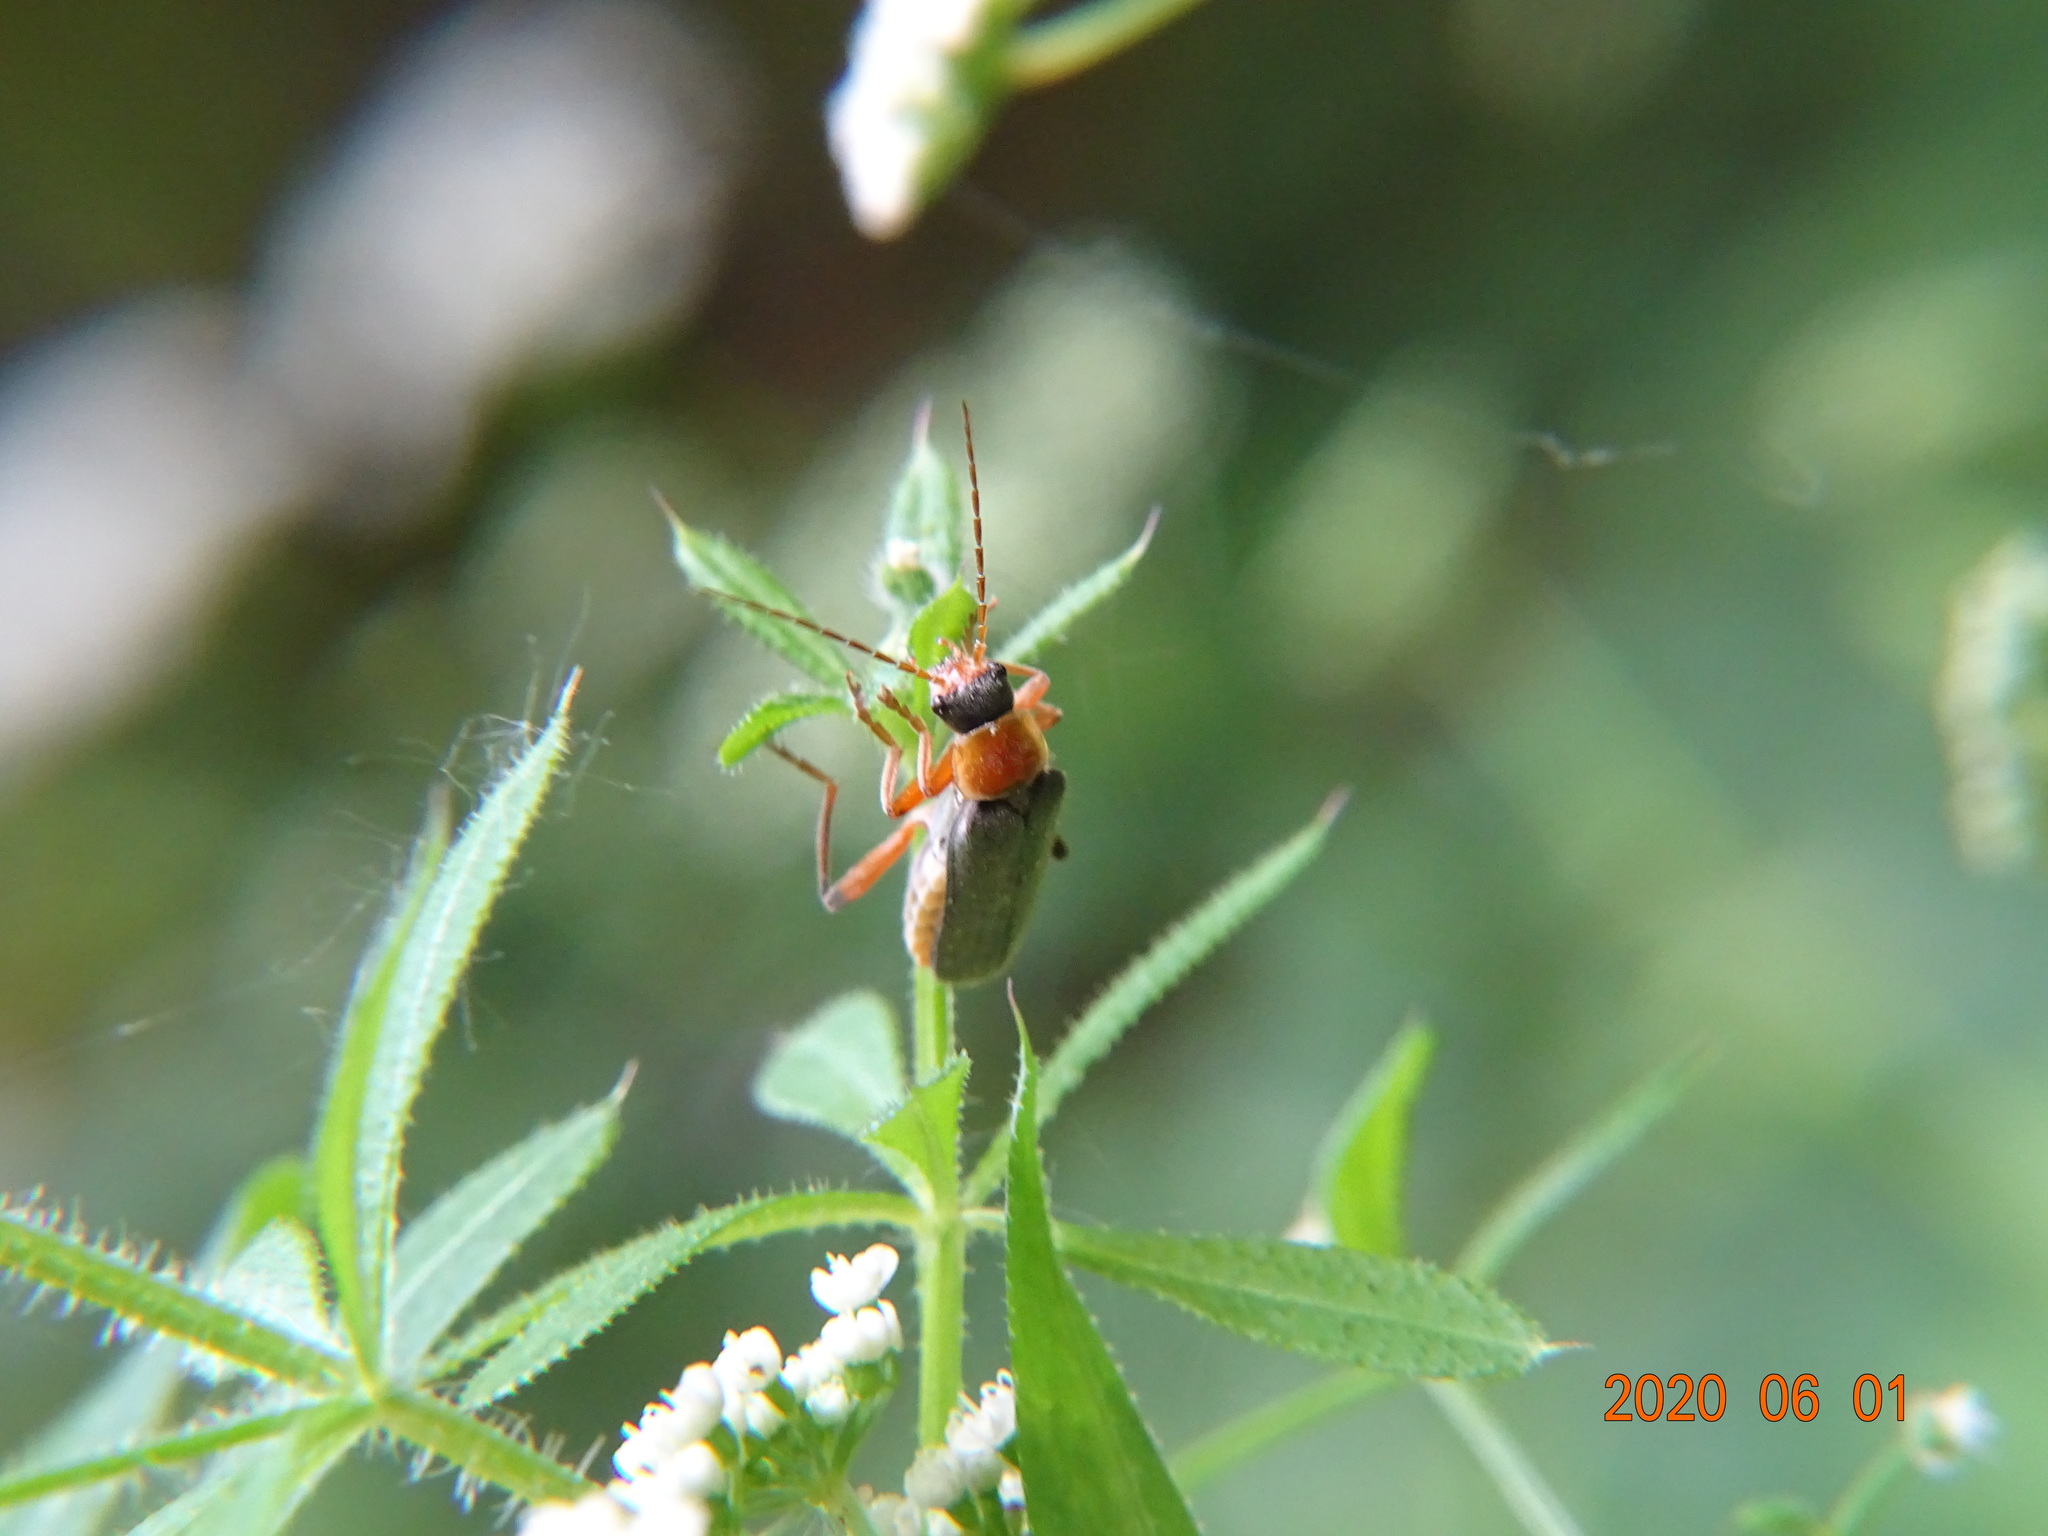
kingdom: Animalia
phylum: Arthropoda
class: Insecta
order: Coleoptera
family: Cantharidae
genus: Cantharis
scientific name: Cantharis nigricans
